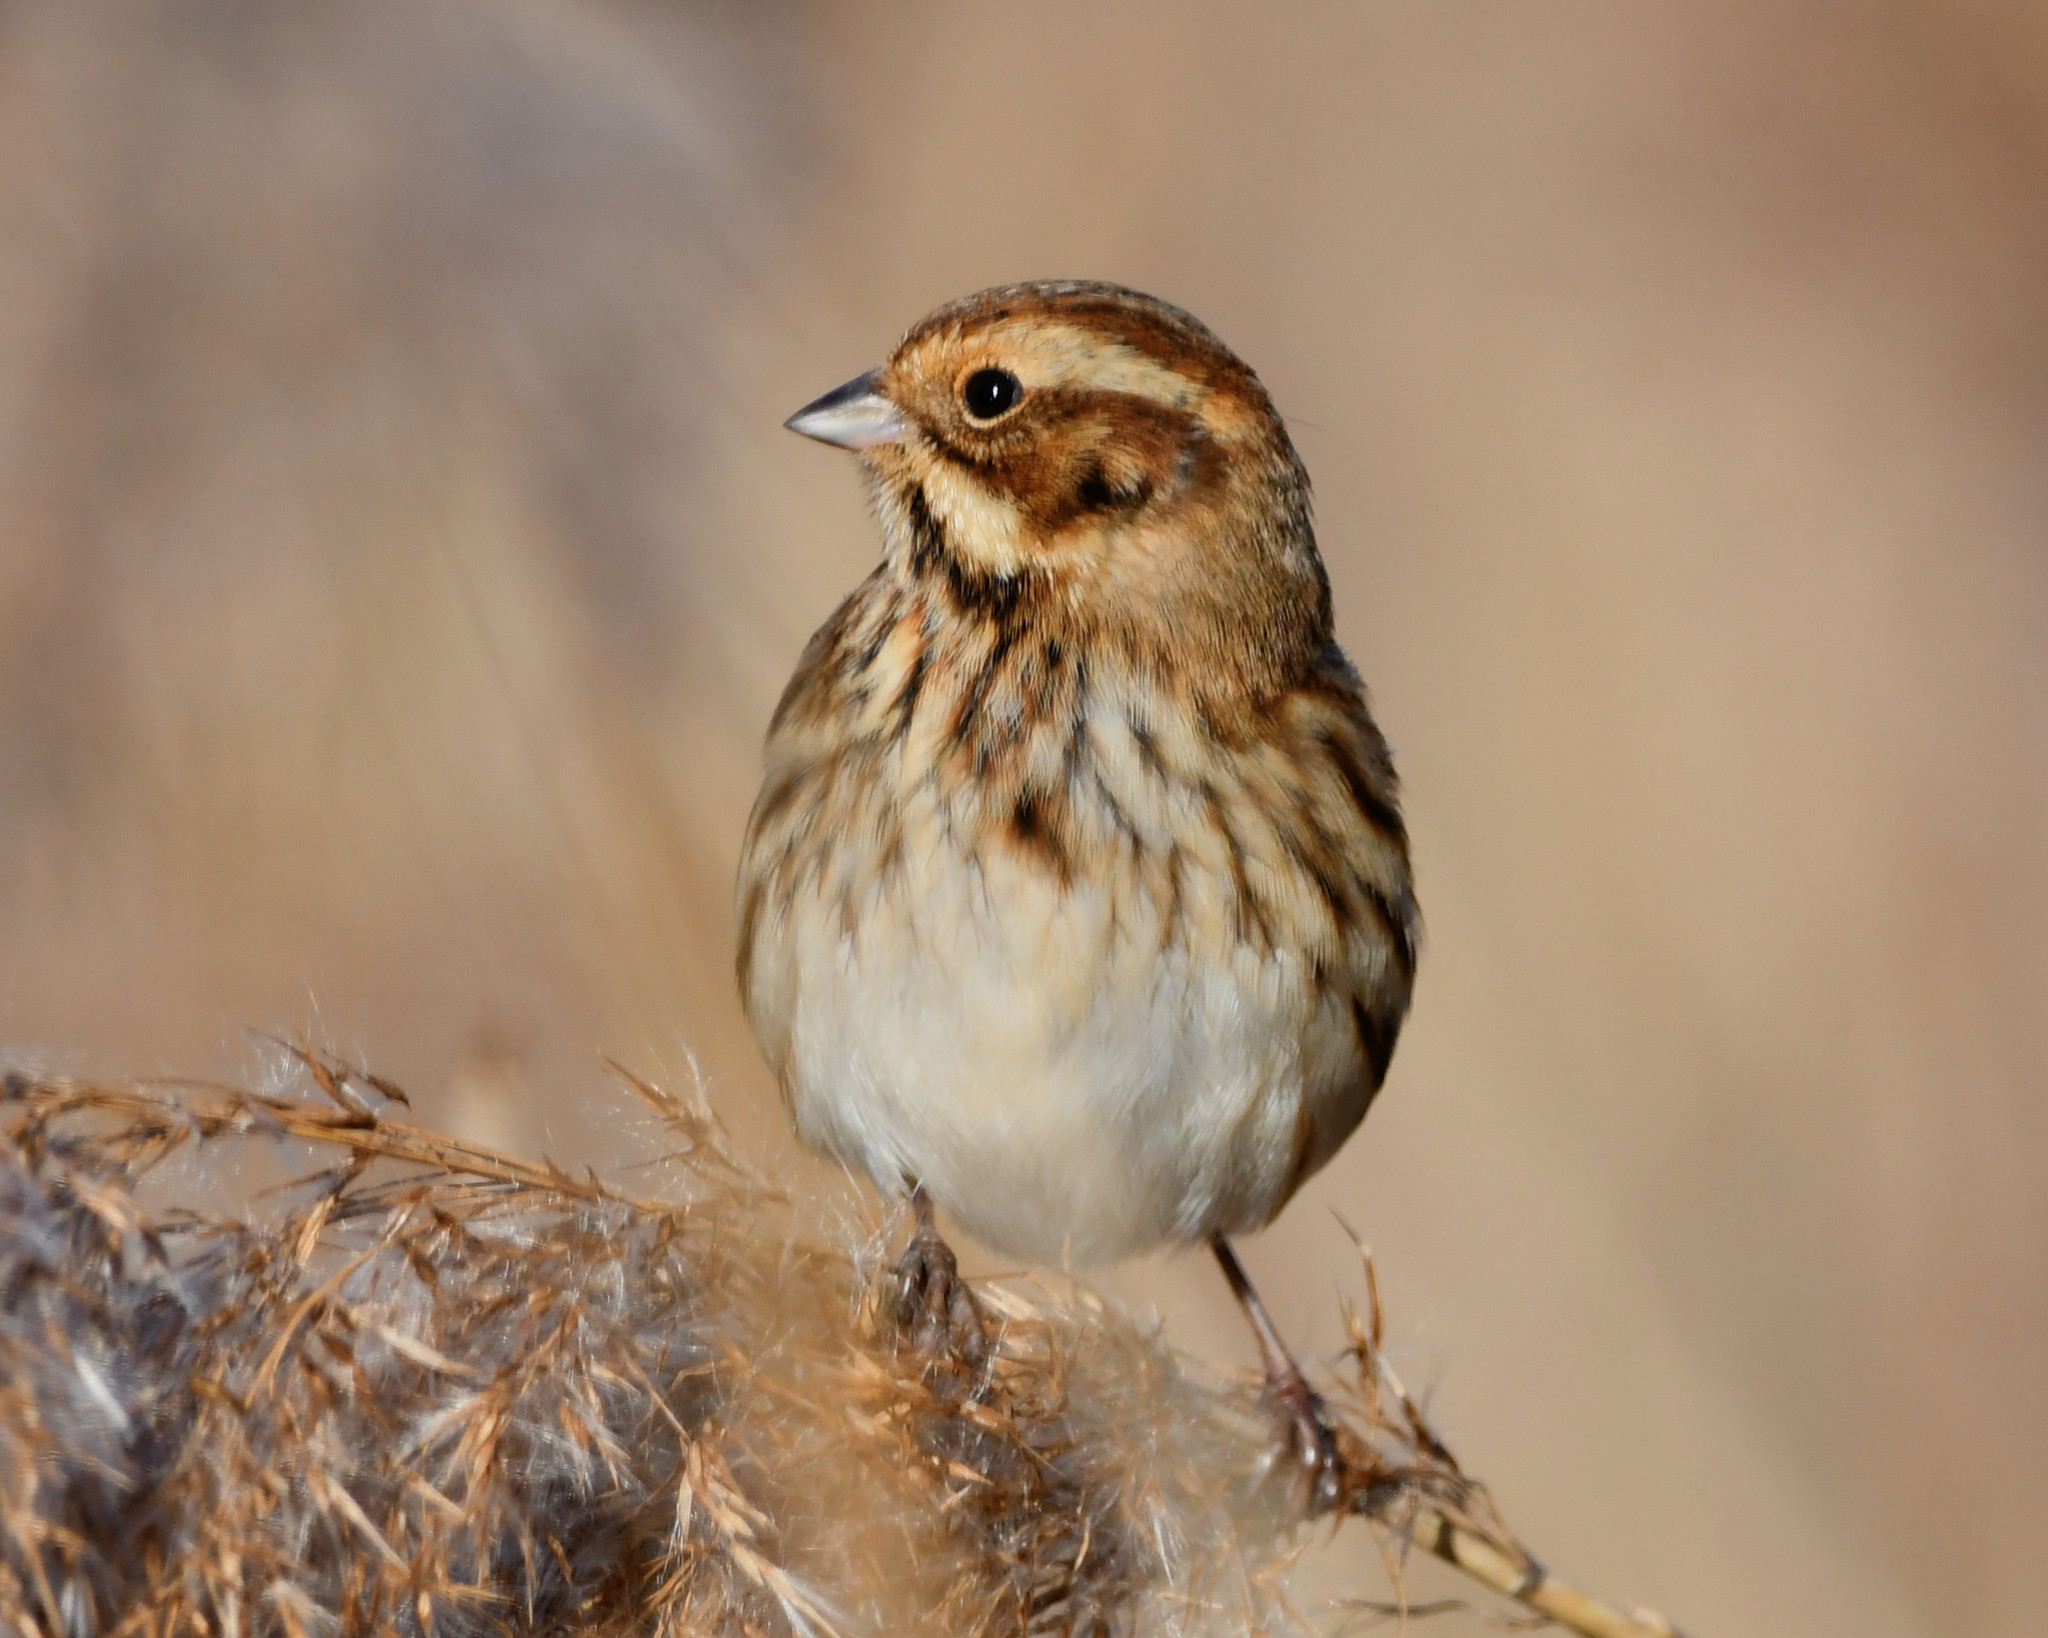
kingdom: Animalia
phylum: Chordata
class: Aves
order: Passeriformes
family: Emberizidae
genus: Emberiza
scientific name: Emberiza schoeniclus
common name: Reed bunting
